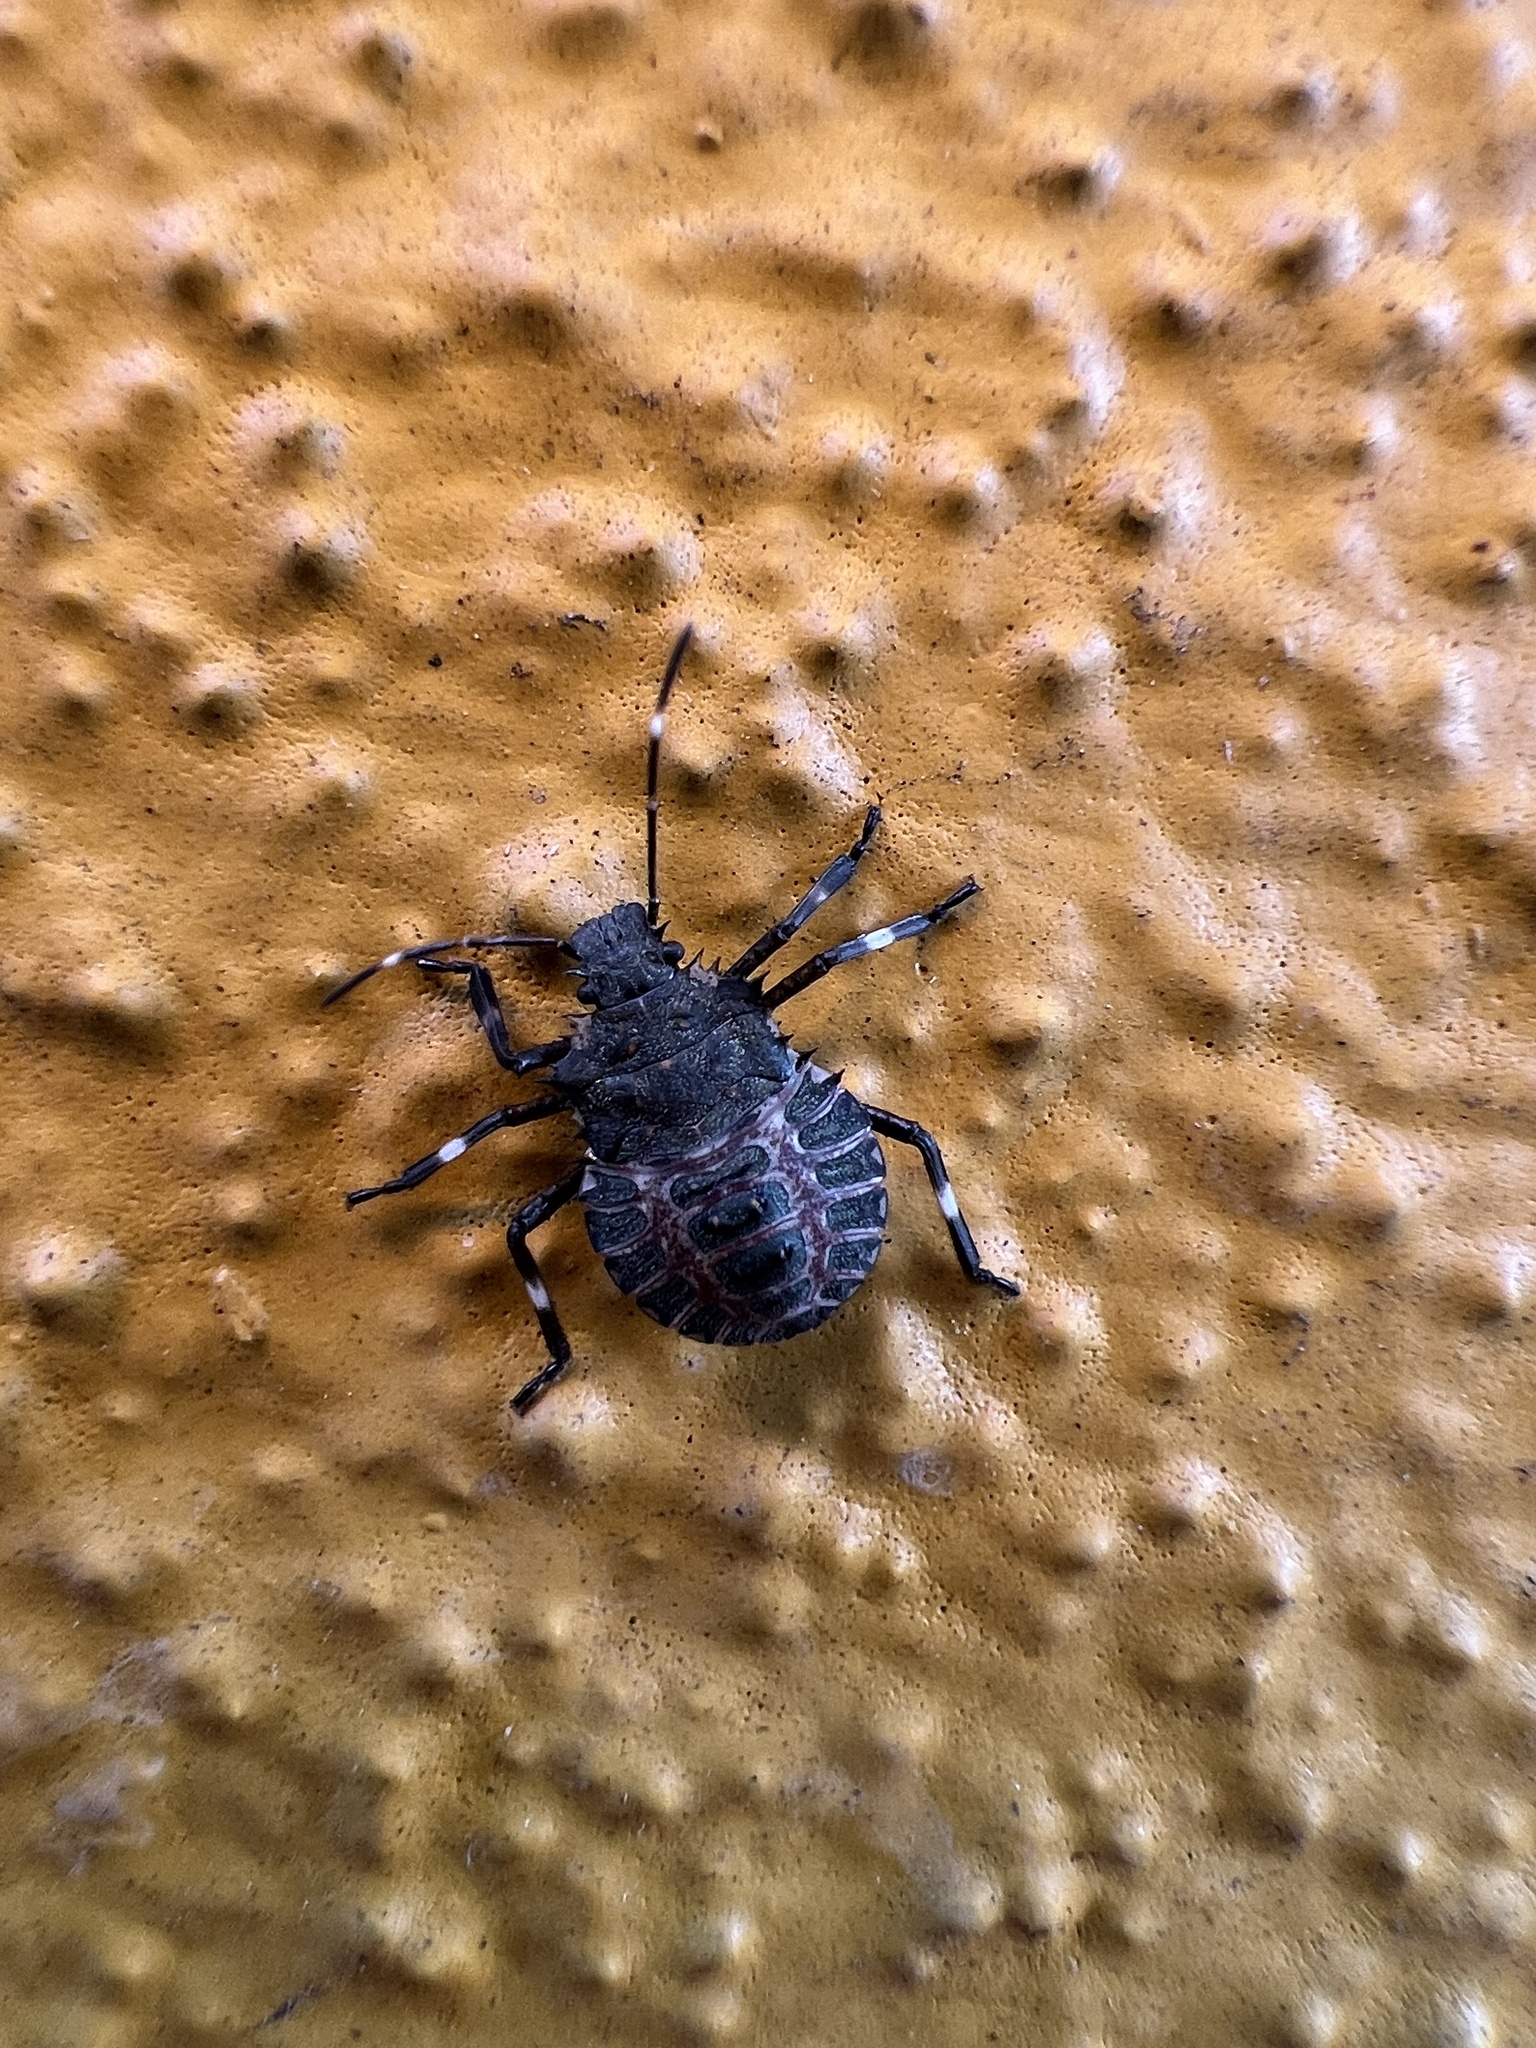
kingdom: Animalia
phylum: Arthropoda
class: Insecta
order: Hemiptera
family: Pentatomidae
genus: Halyomorpha
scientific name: Halyomorpha halys
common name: Brown marmorated stink bug
